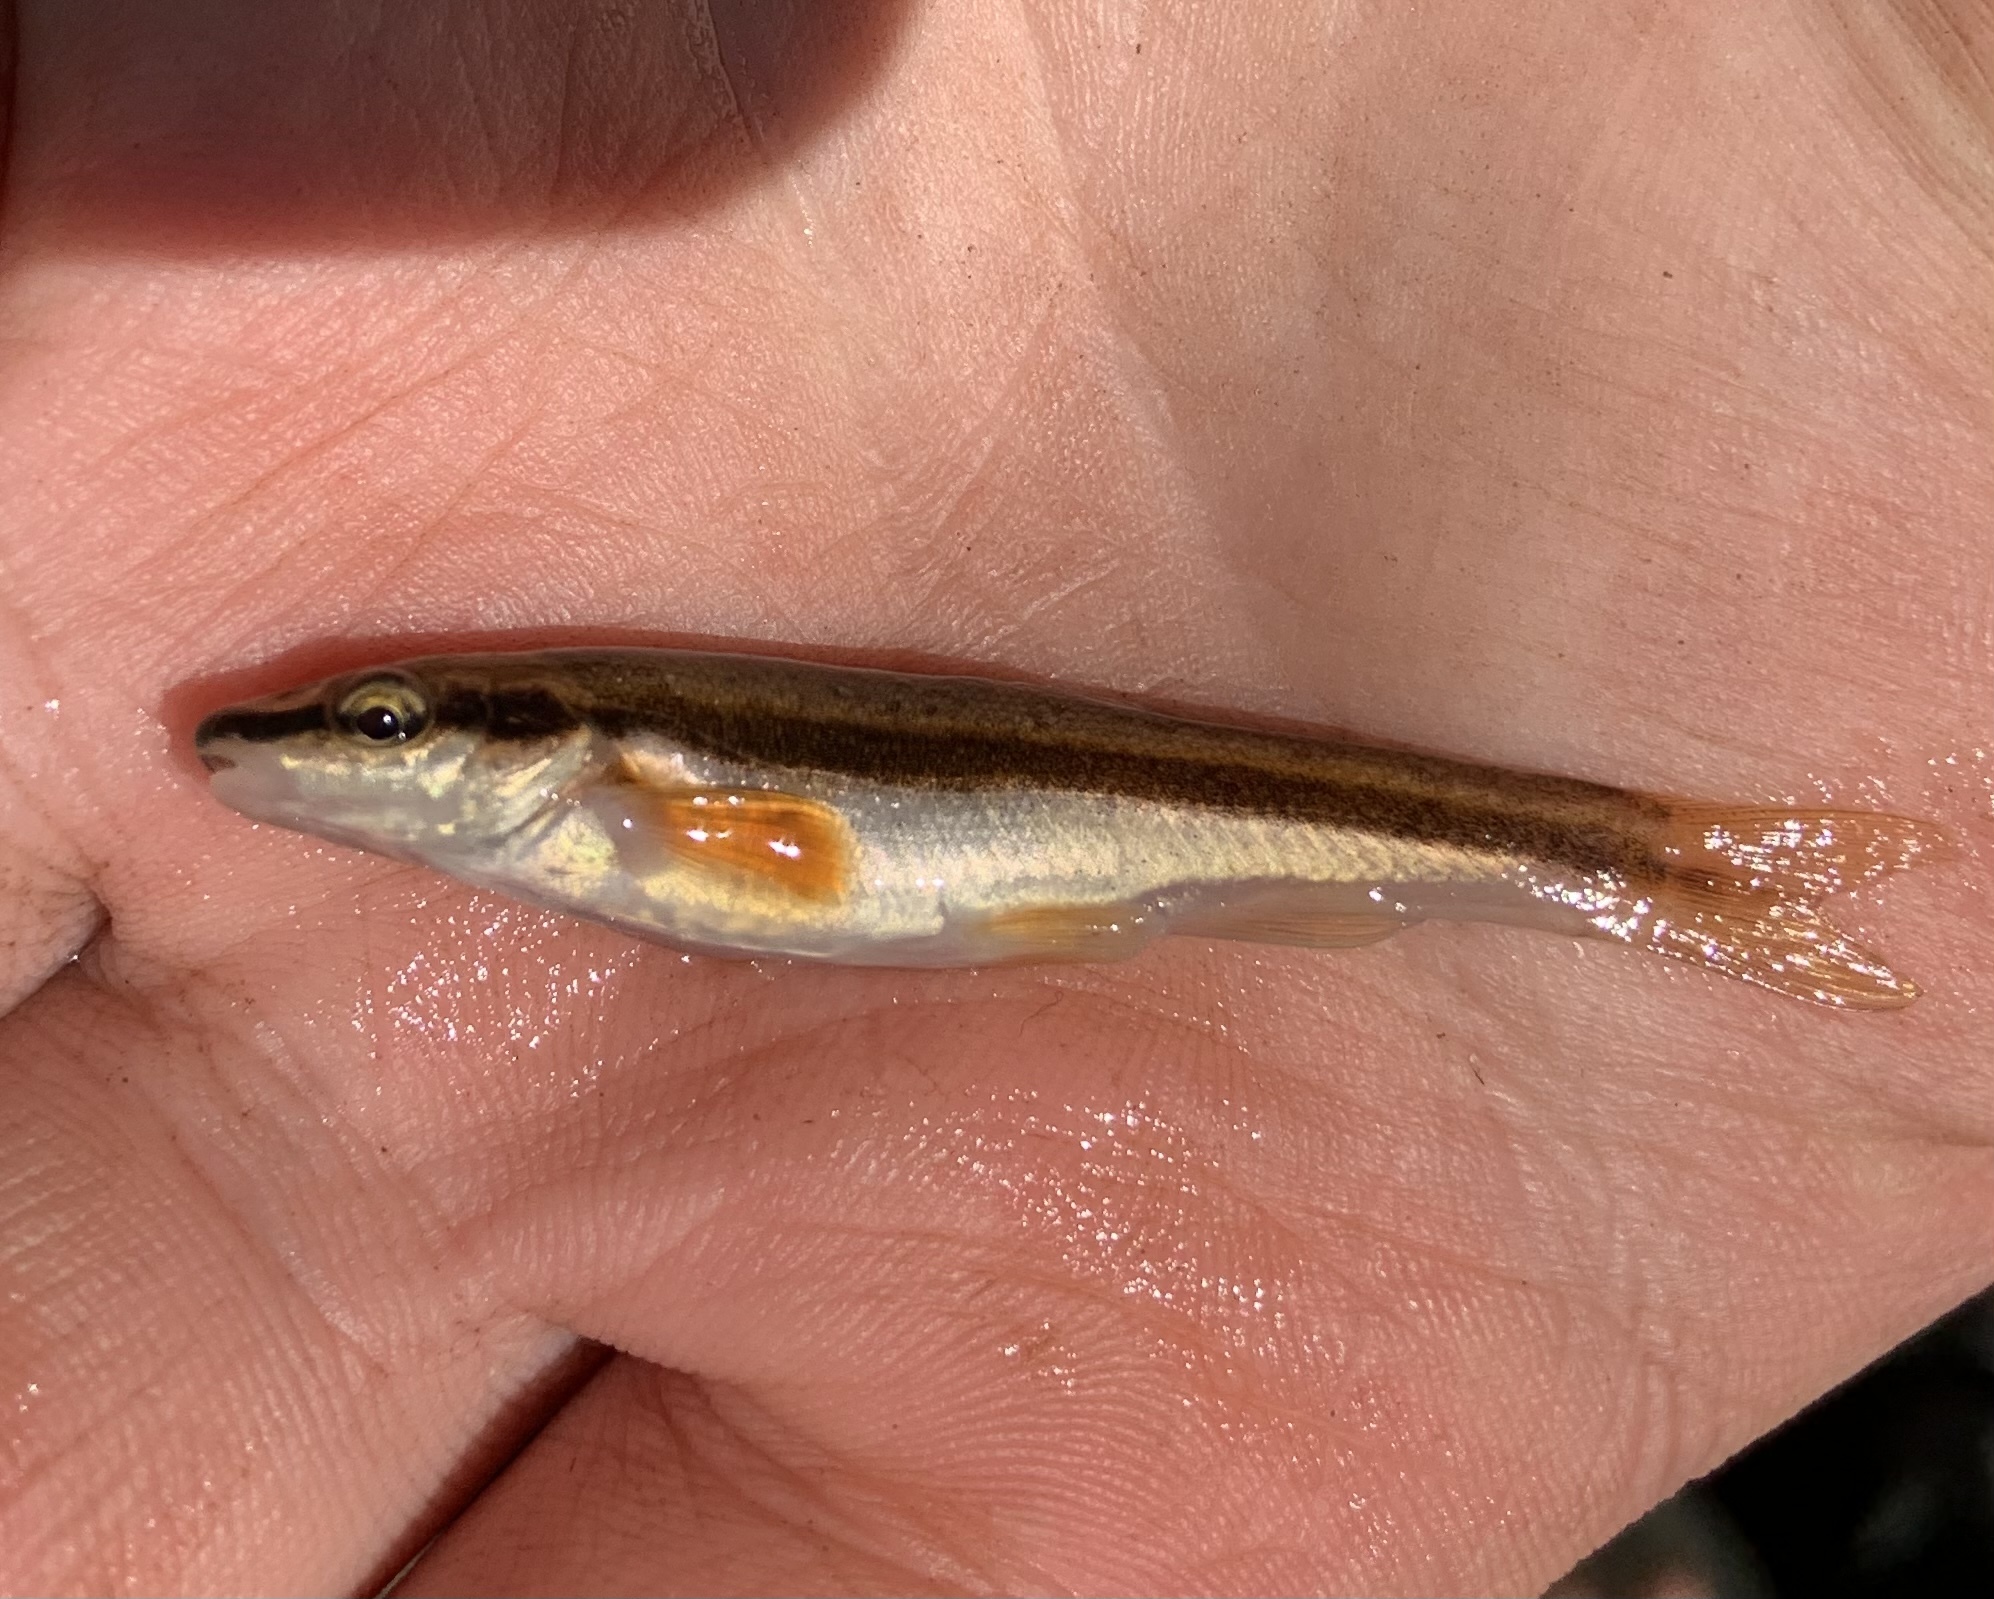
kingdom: Animalia
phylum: Chordata
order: Cypriniformes
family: Cyprinidae
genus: Rhinichthys
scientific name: Rhinichthys atratulus
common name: Eastern blacknose dace
